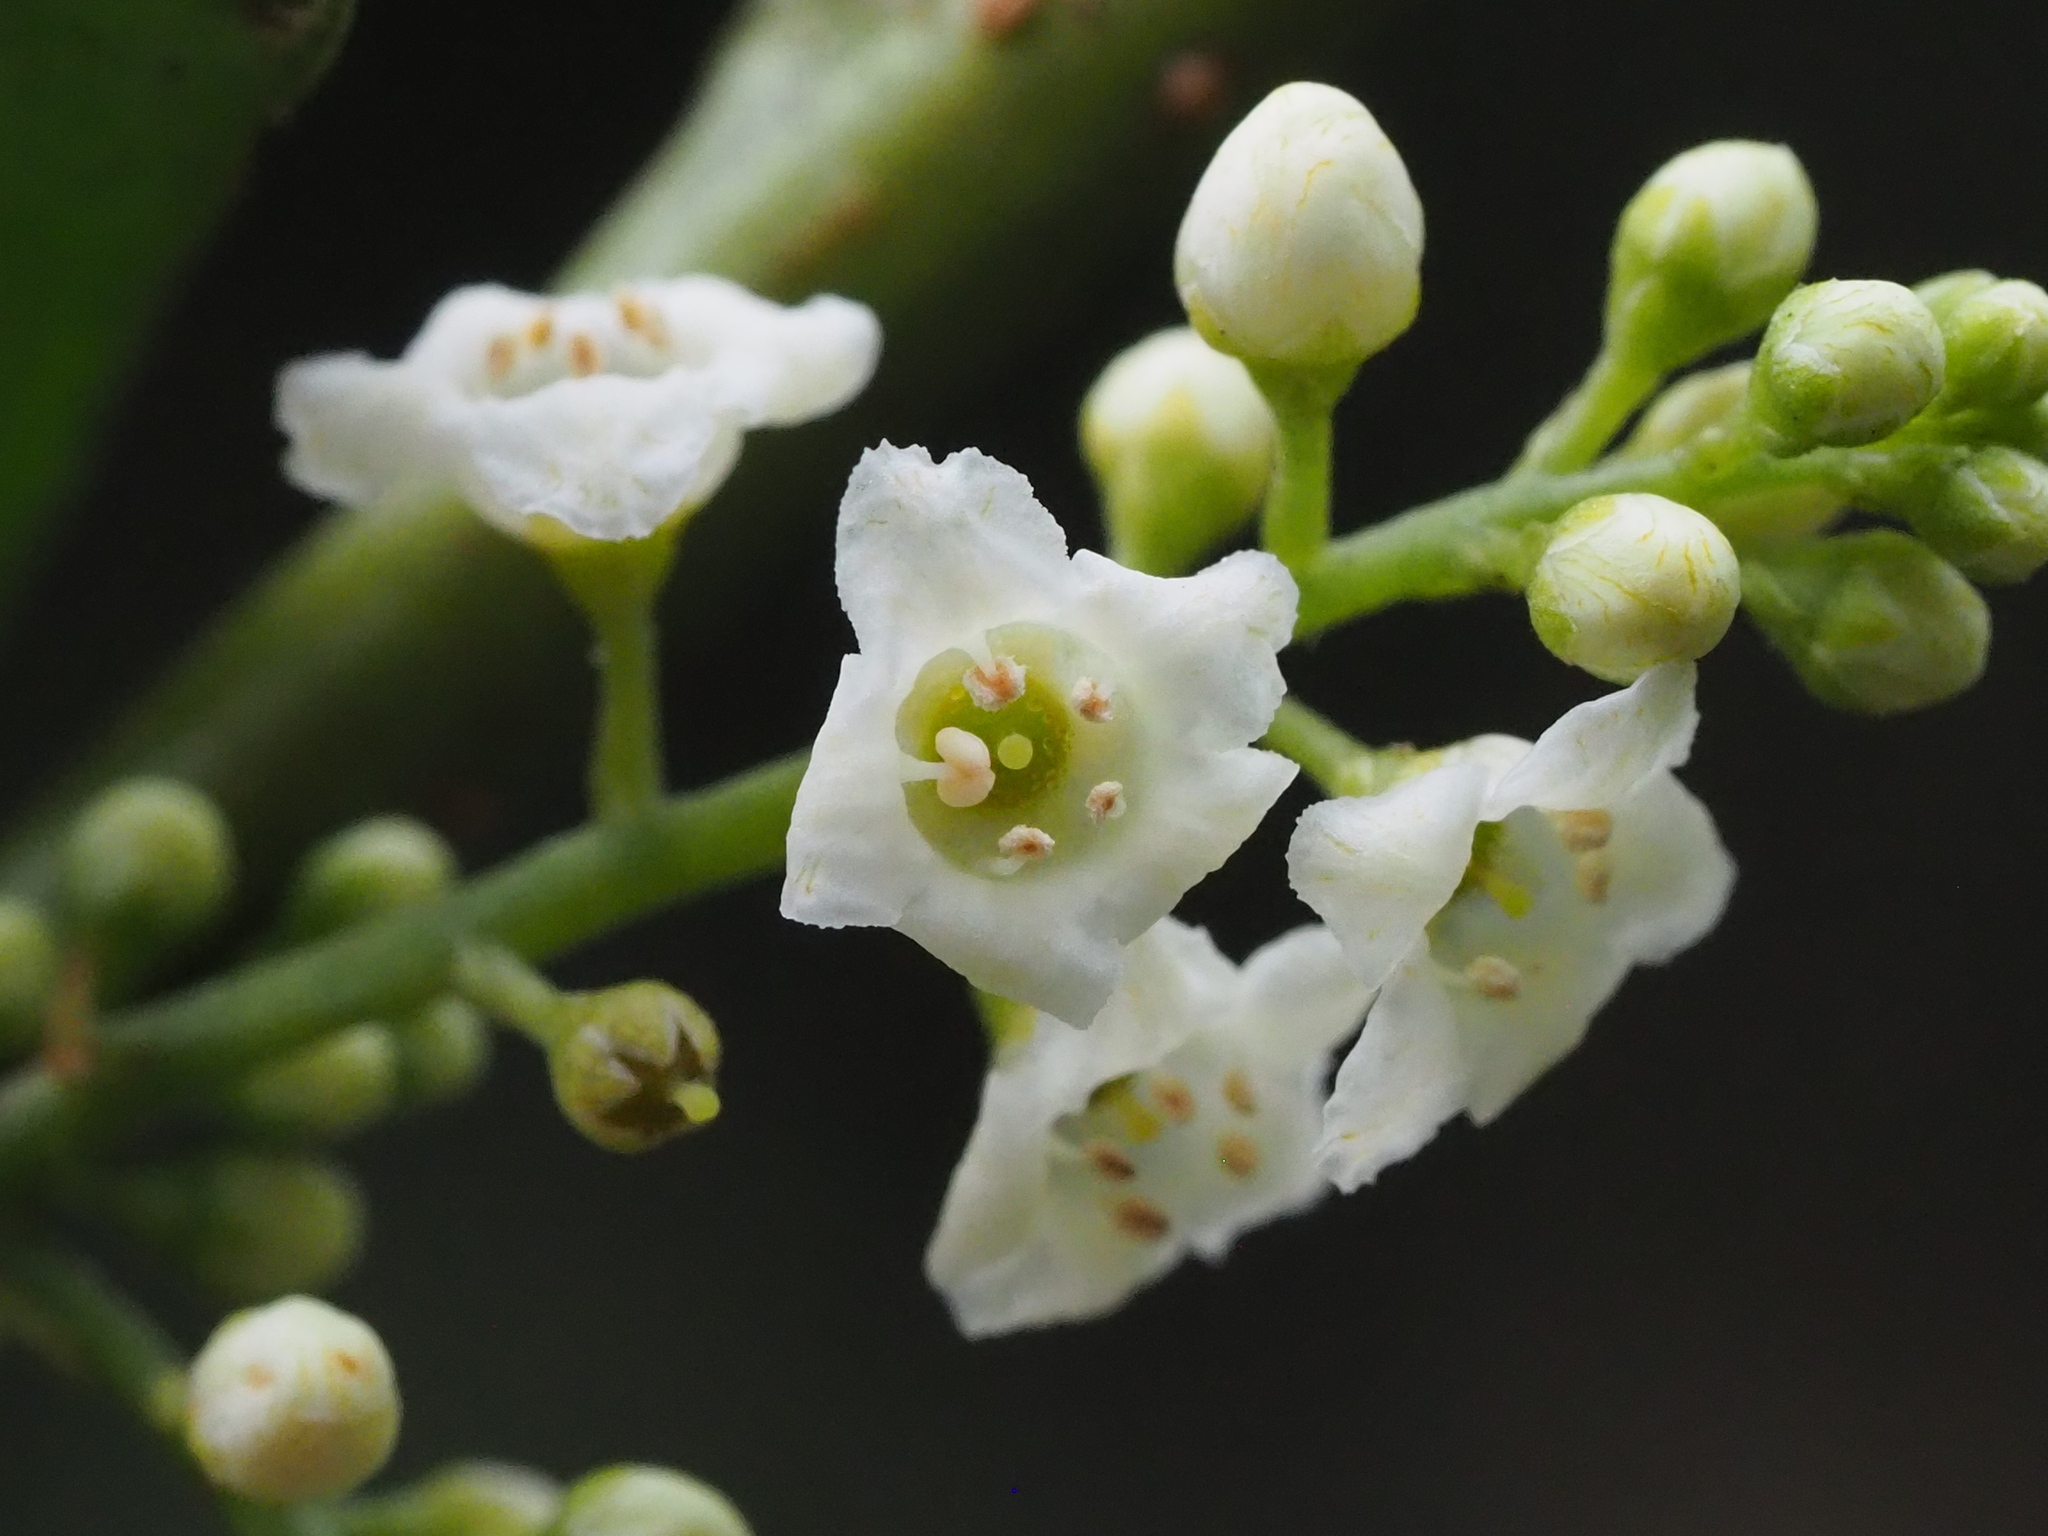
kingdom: Plantae
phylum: Tracheophyta
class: Magnoliopsida
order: Ericales
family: Primulaceae
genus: Maesa
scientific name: Maesa perlaria
